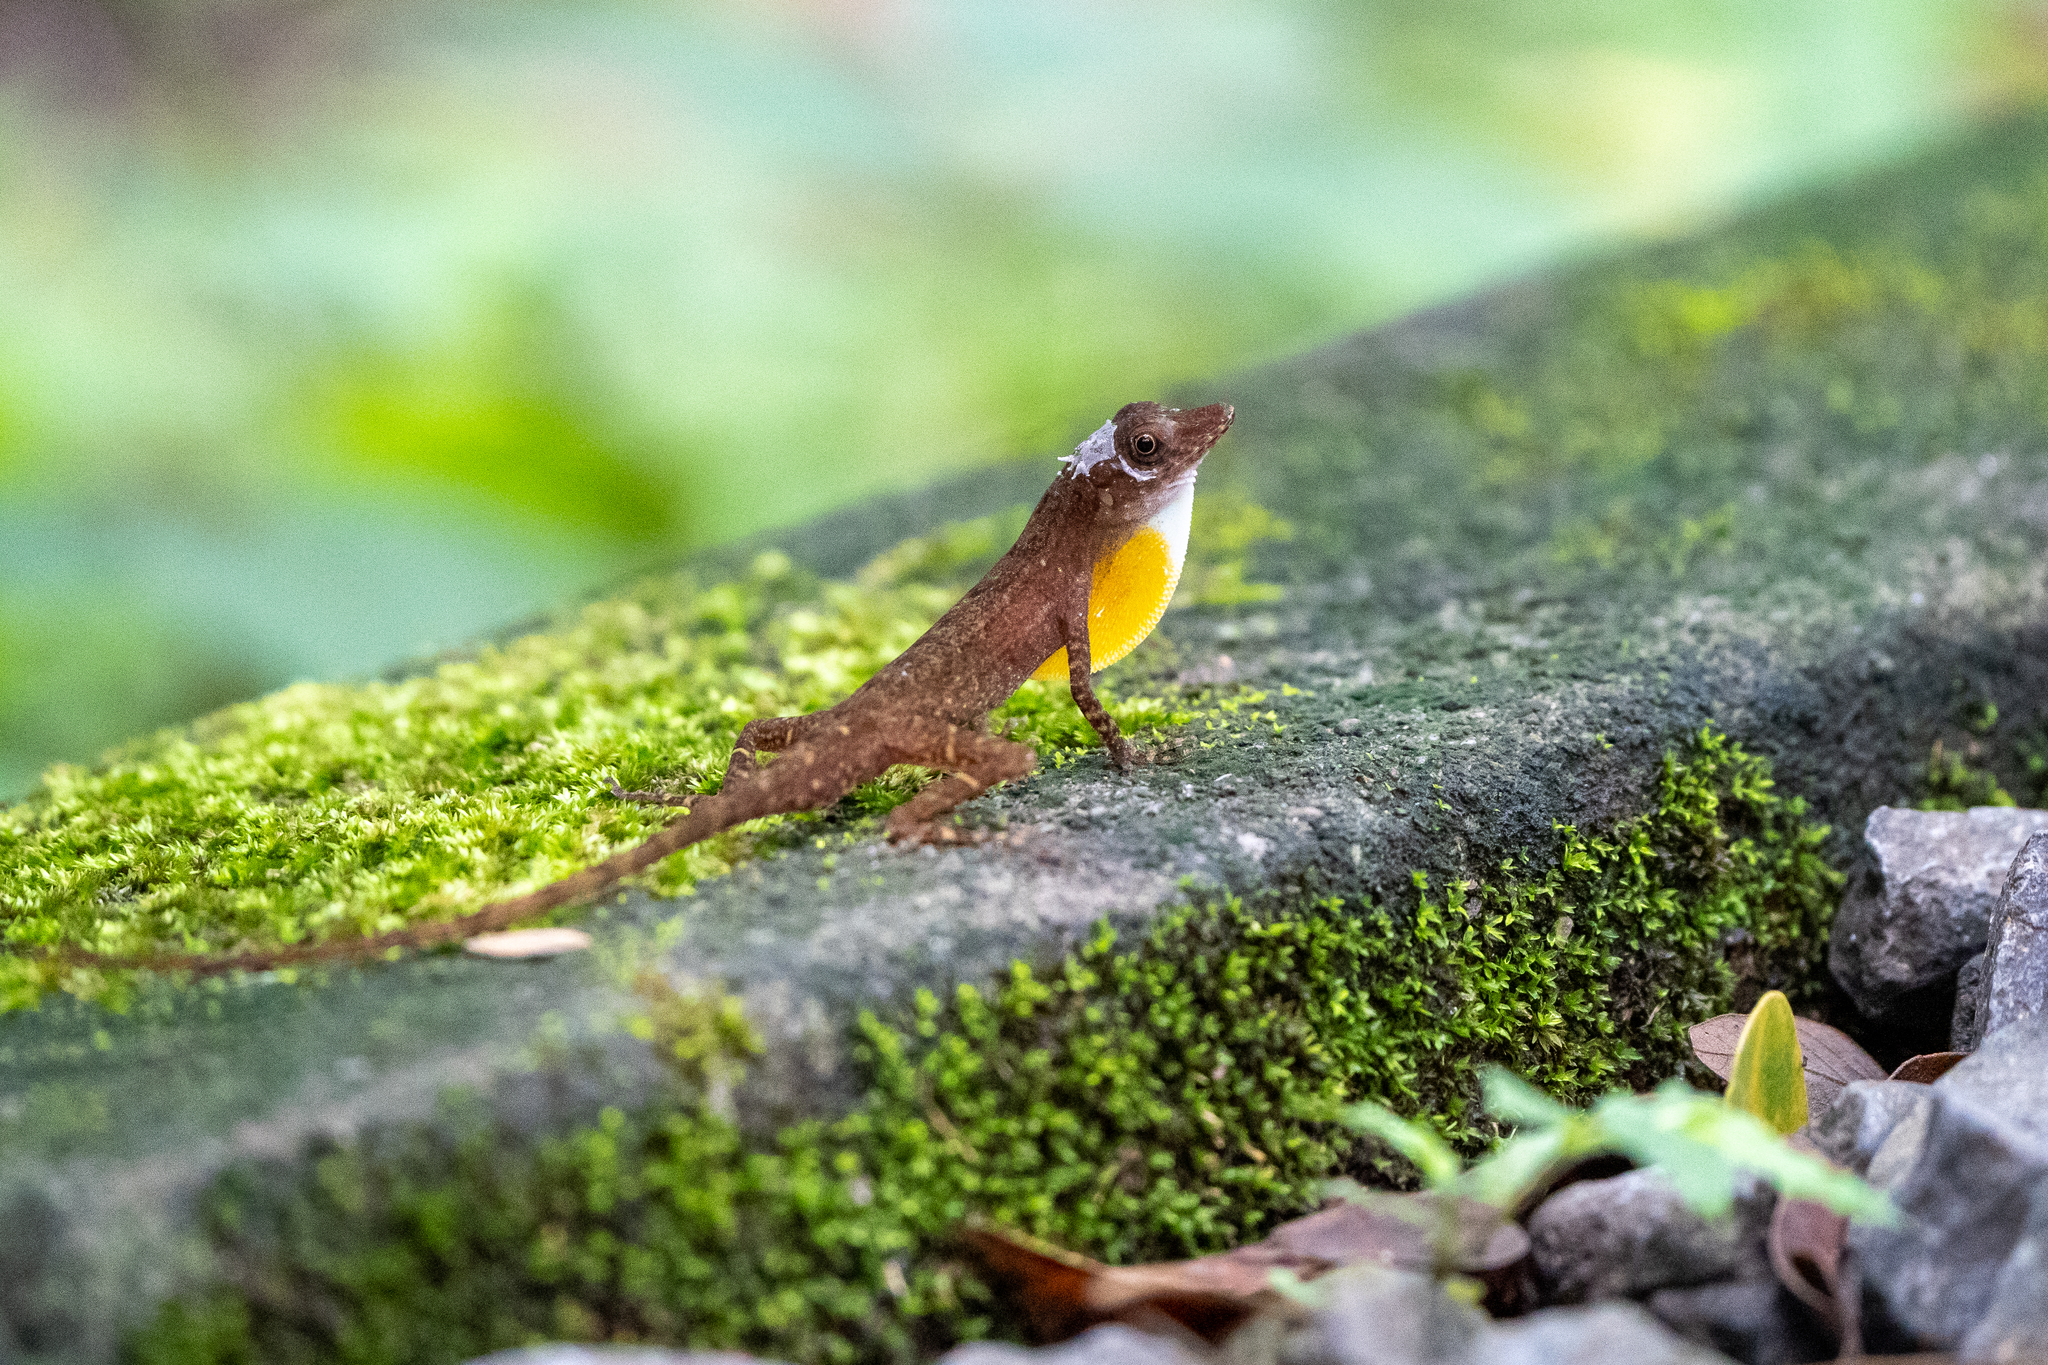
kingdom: Animalia
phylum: Chordata
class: Squamata
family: Dactyloidae
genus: Anolis
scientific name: Anolis apletophallus
